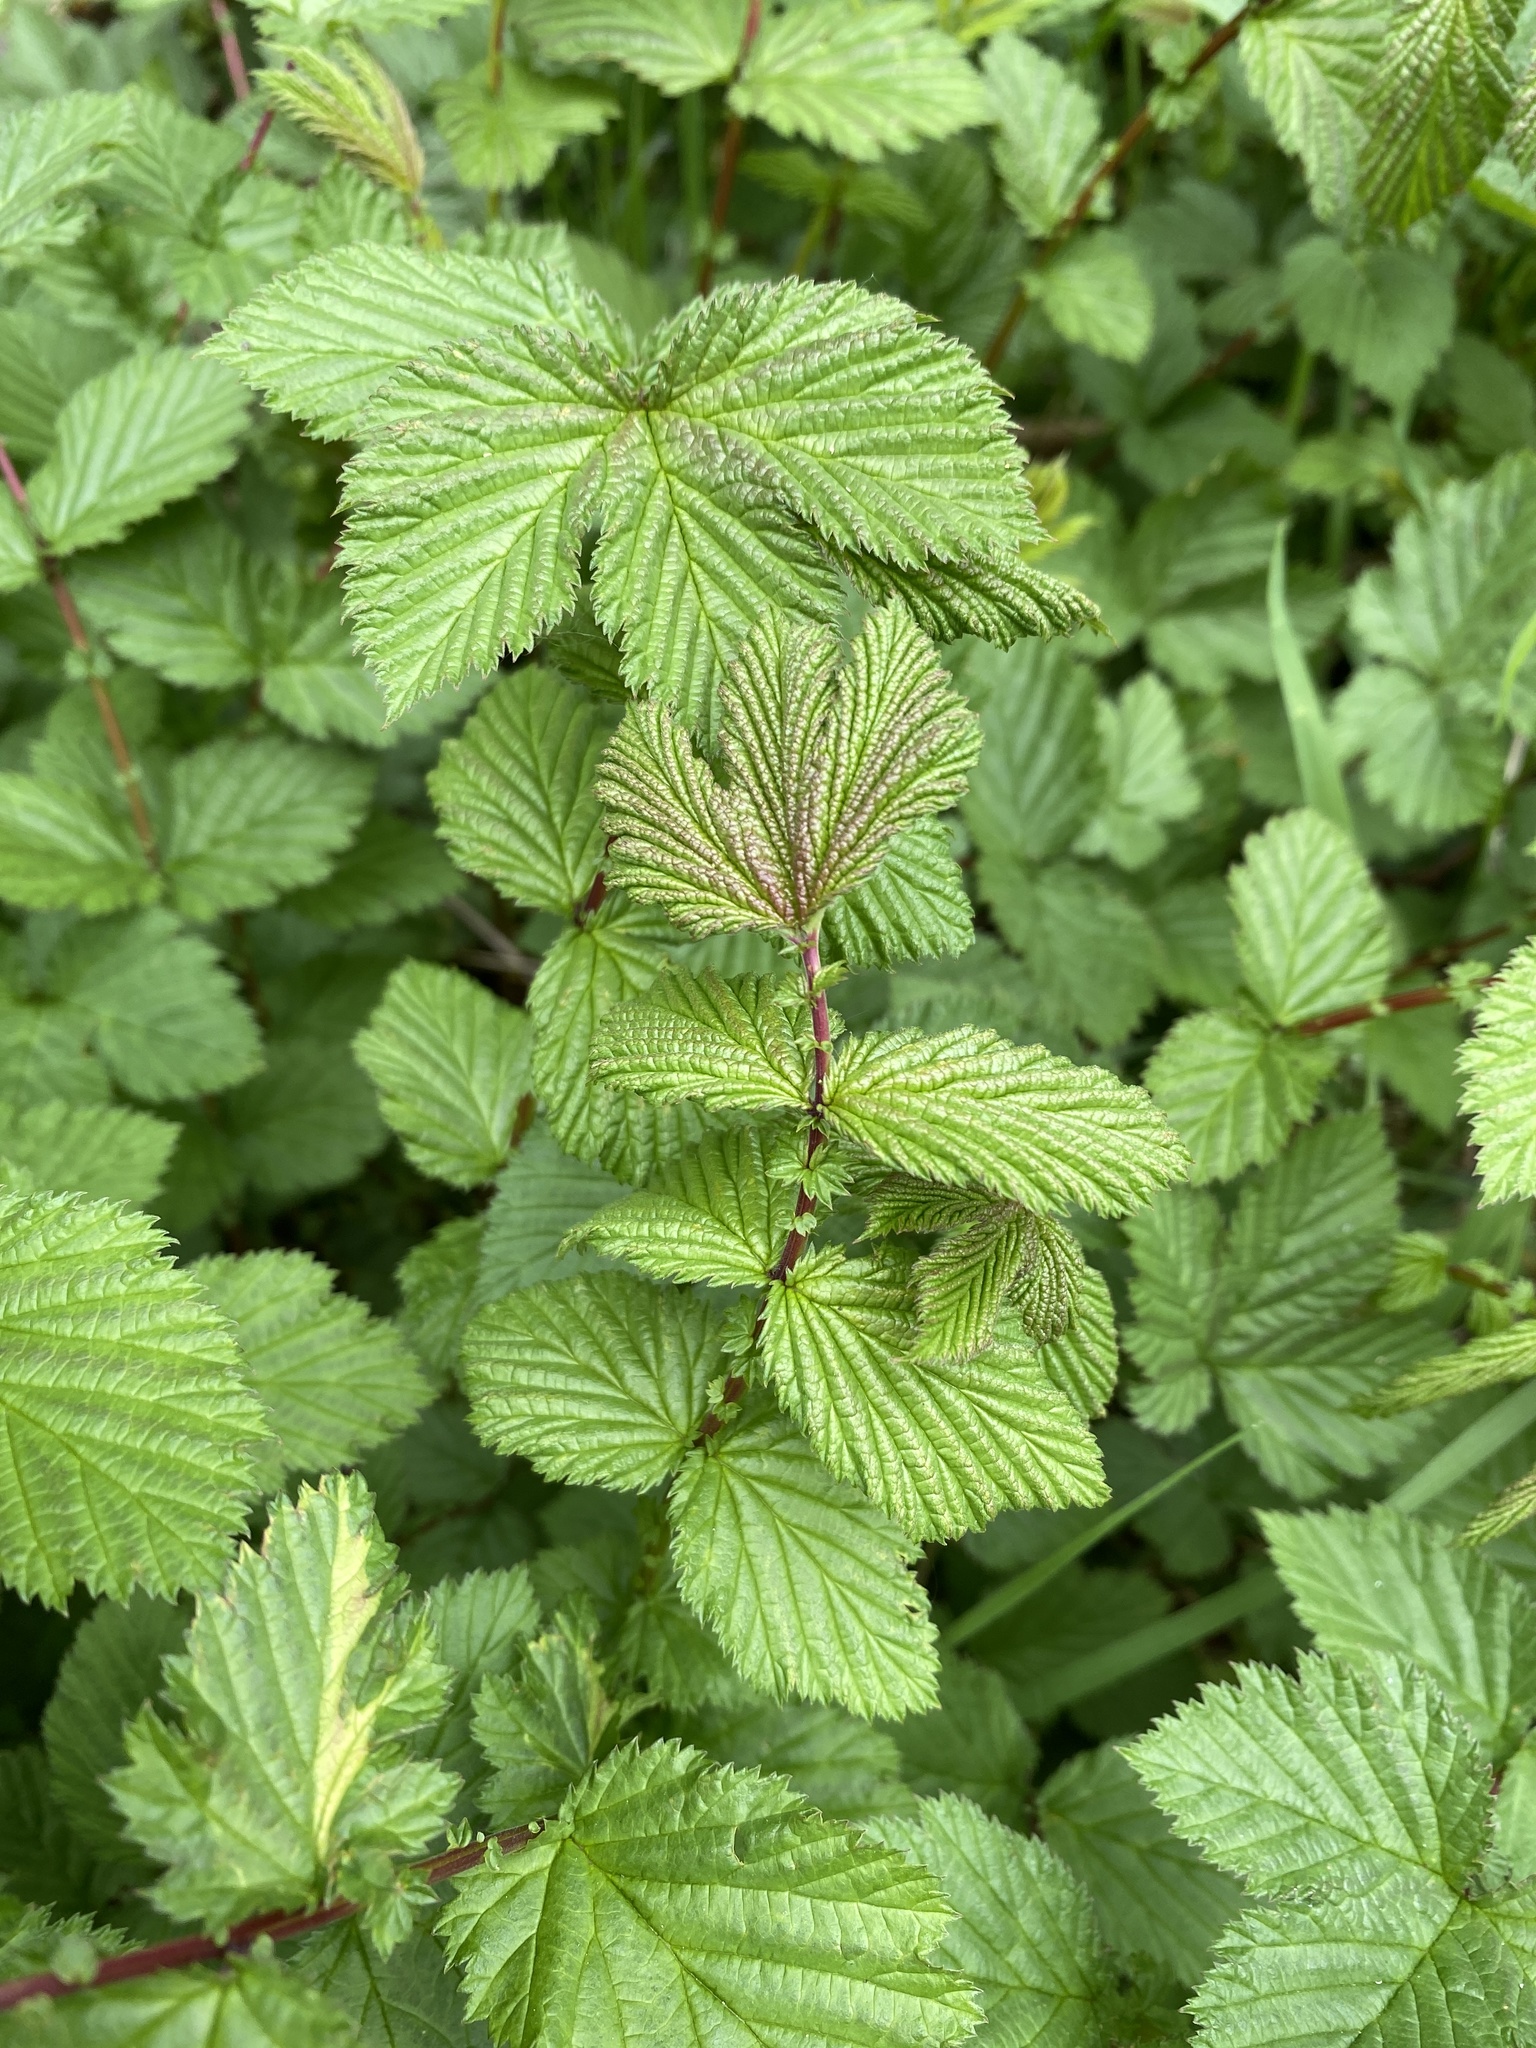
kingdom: Plantae
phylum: Tracheophyta
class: Magnoliopsida
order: Rosales
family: Rosaceae
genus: Filipendula
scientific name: Filipendula ulmaria
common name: Meadowsweet
